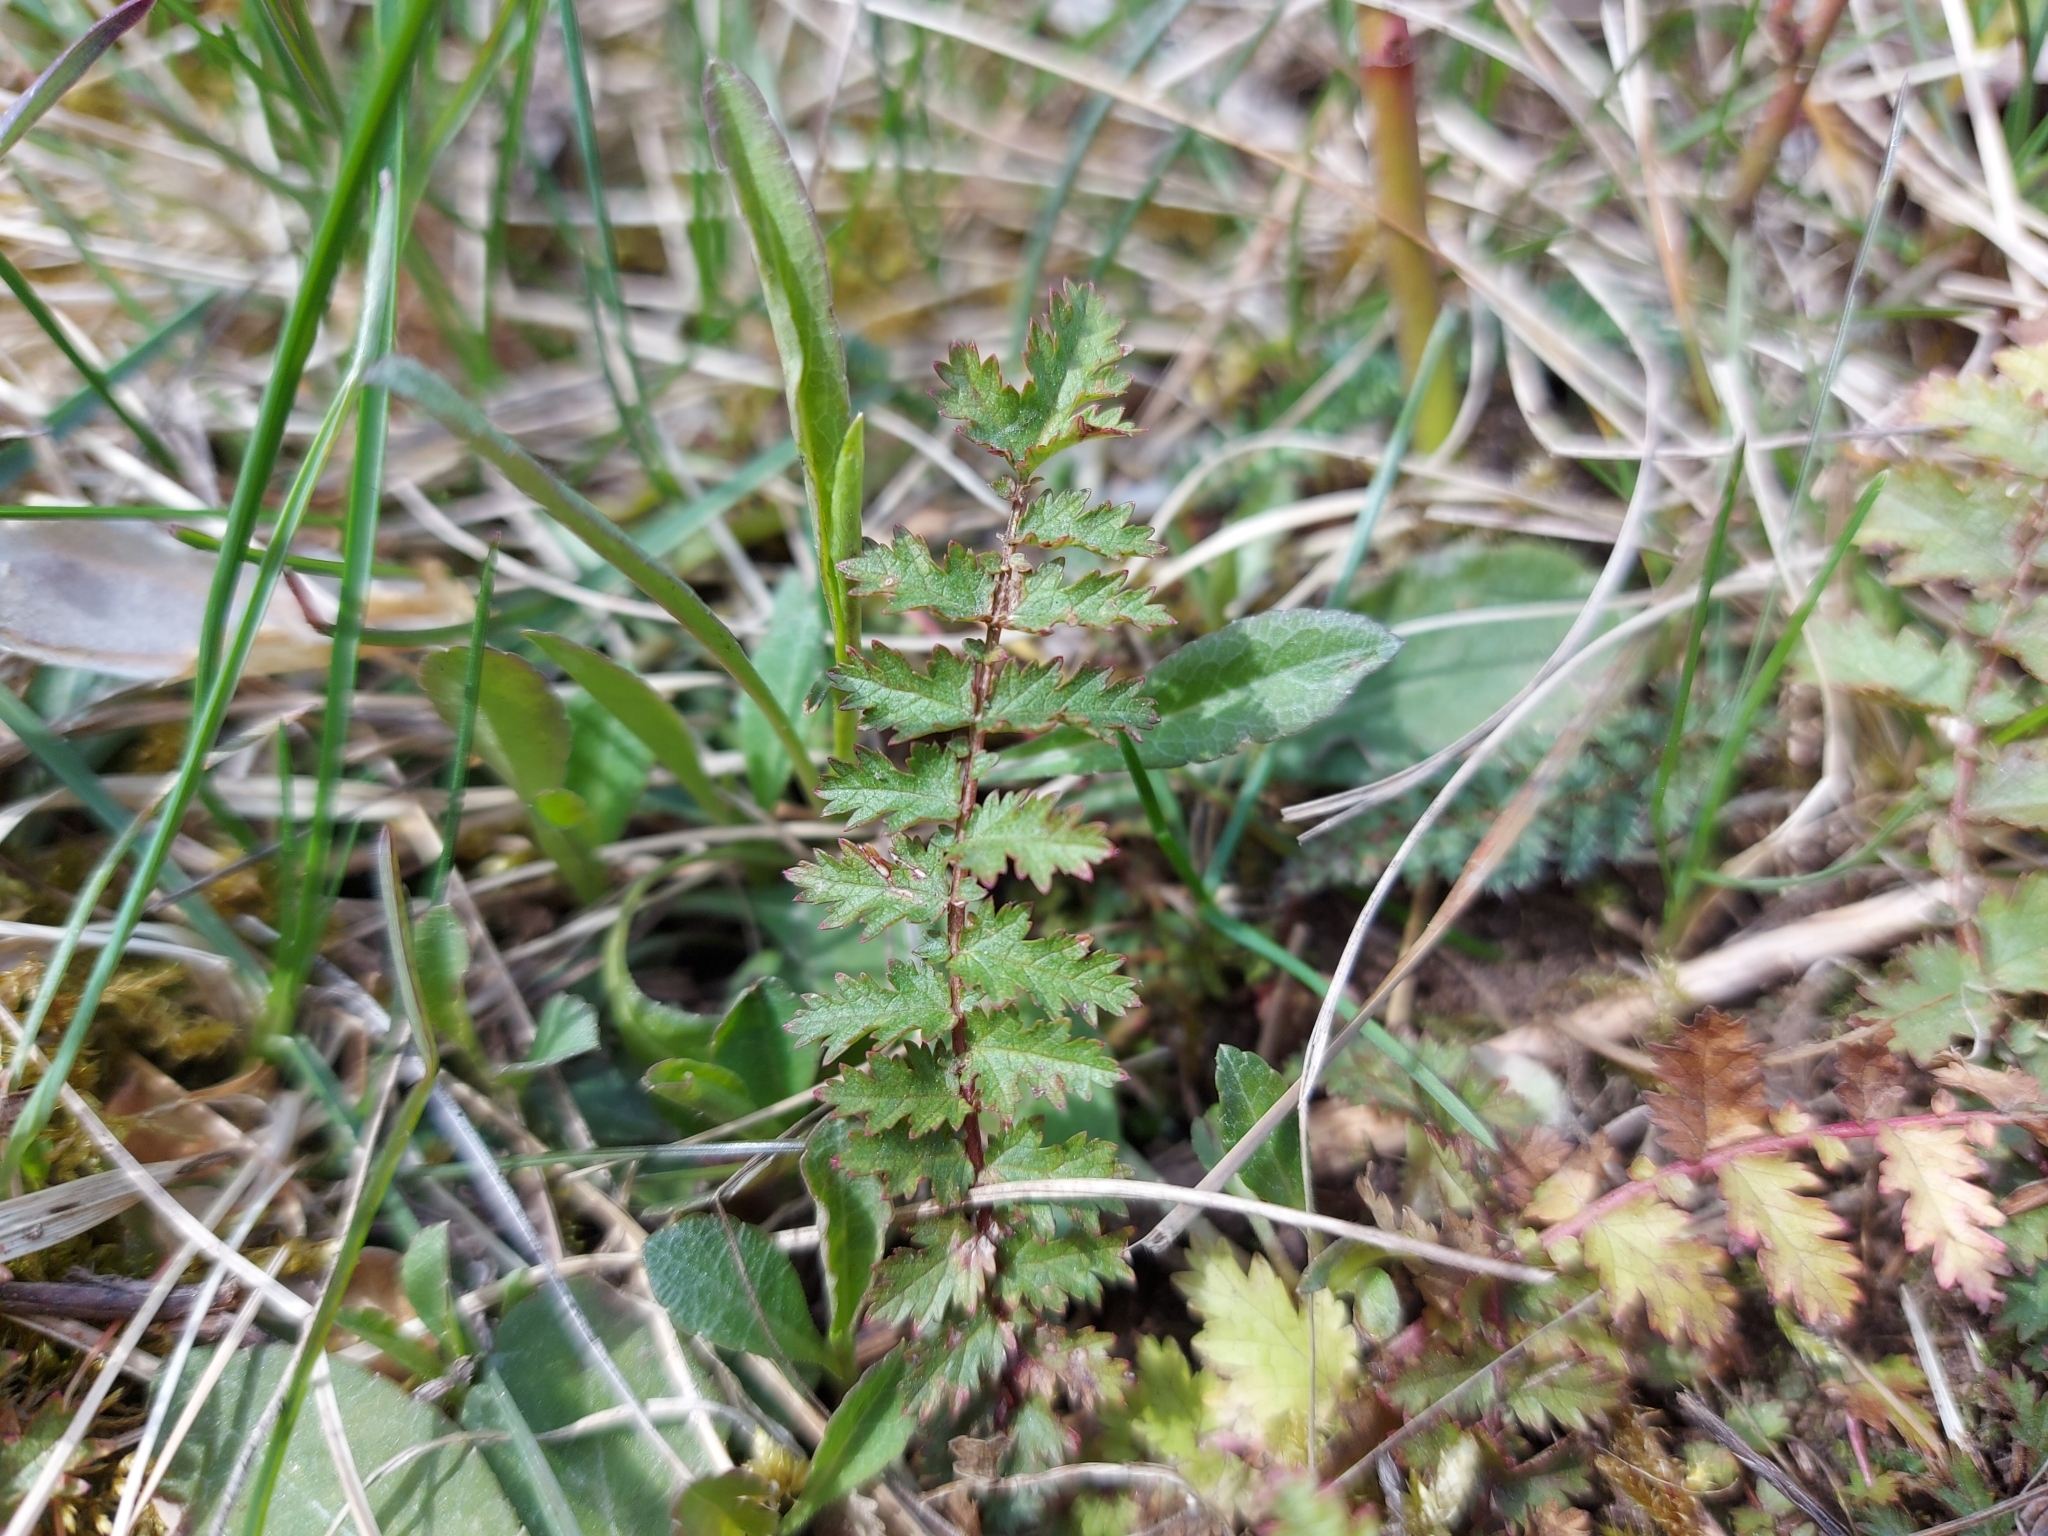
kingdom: Plantae
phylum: Tracheophyta
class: Magnoliopsida
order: Rosales
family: Rosaceae
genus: Filipendula
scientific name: Filipendula vulgaris
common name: Dropwort
